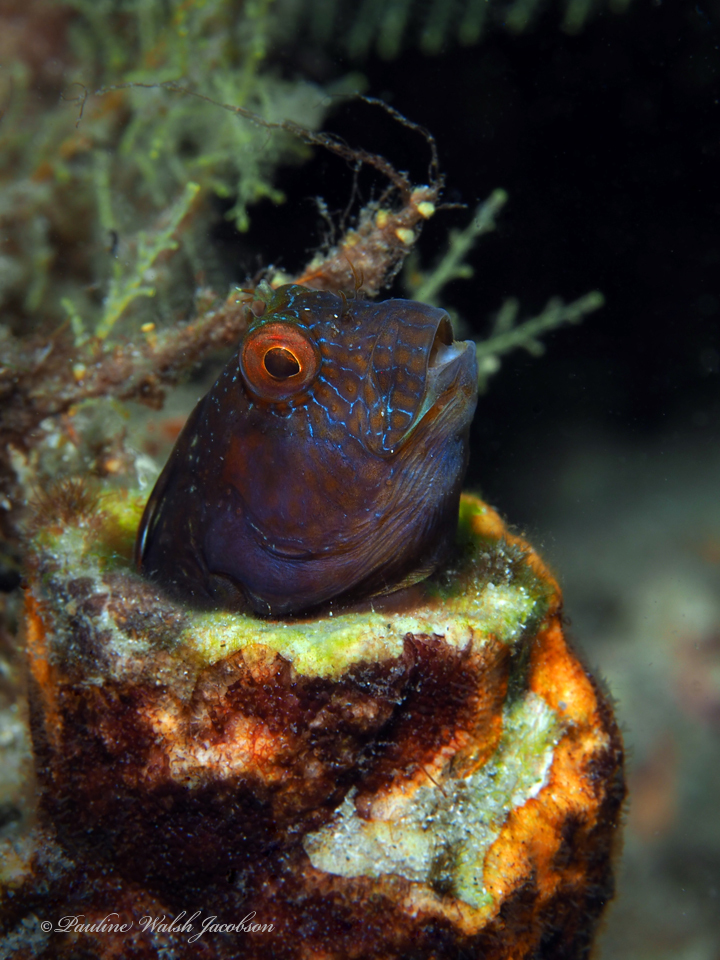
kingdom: Animalia
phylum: Chordata
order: Perciformes
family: Blenniidae
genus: Parablennius
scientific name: Parablennius marmoreus
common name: Seaweed blenny
